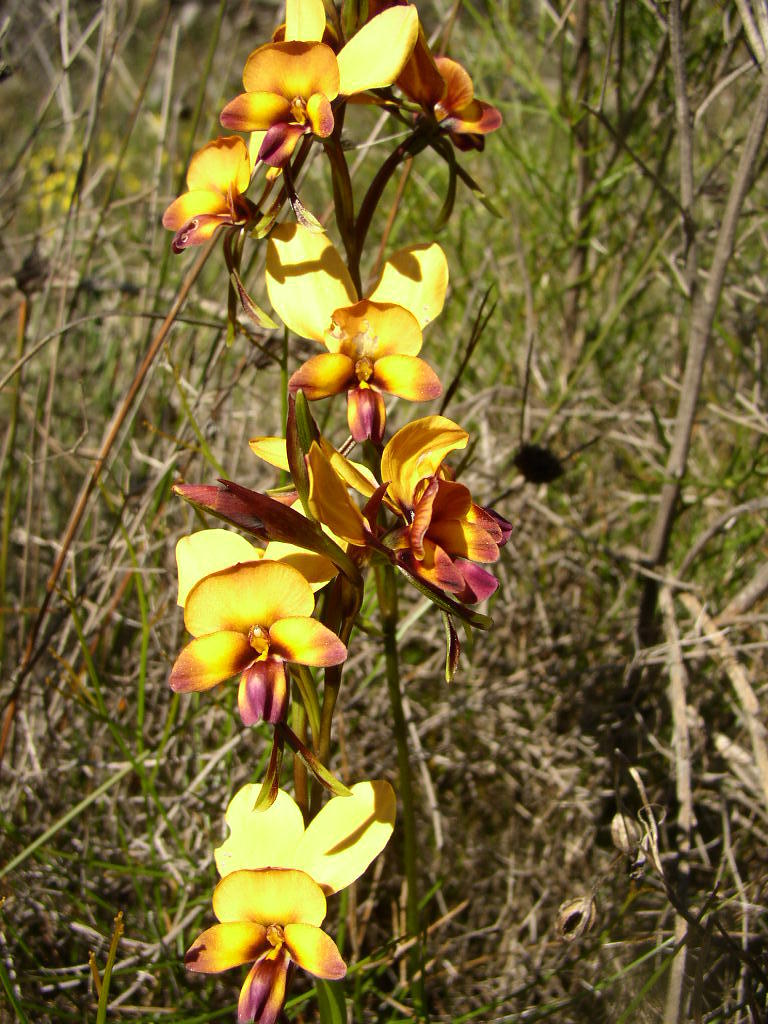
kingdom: Plantae
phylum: Tracheophyta
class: Liliopsida
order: Asparagales
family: Orchidaceae
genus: Diuris
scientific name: Diuris magnifica
